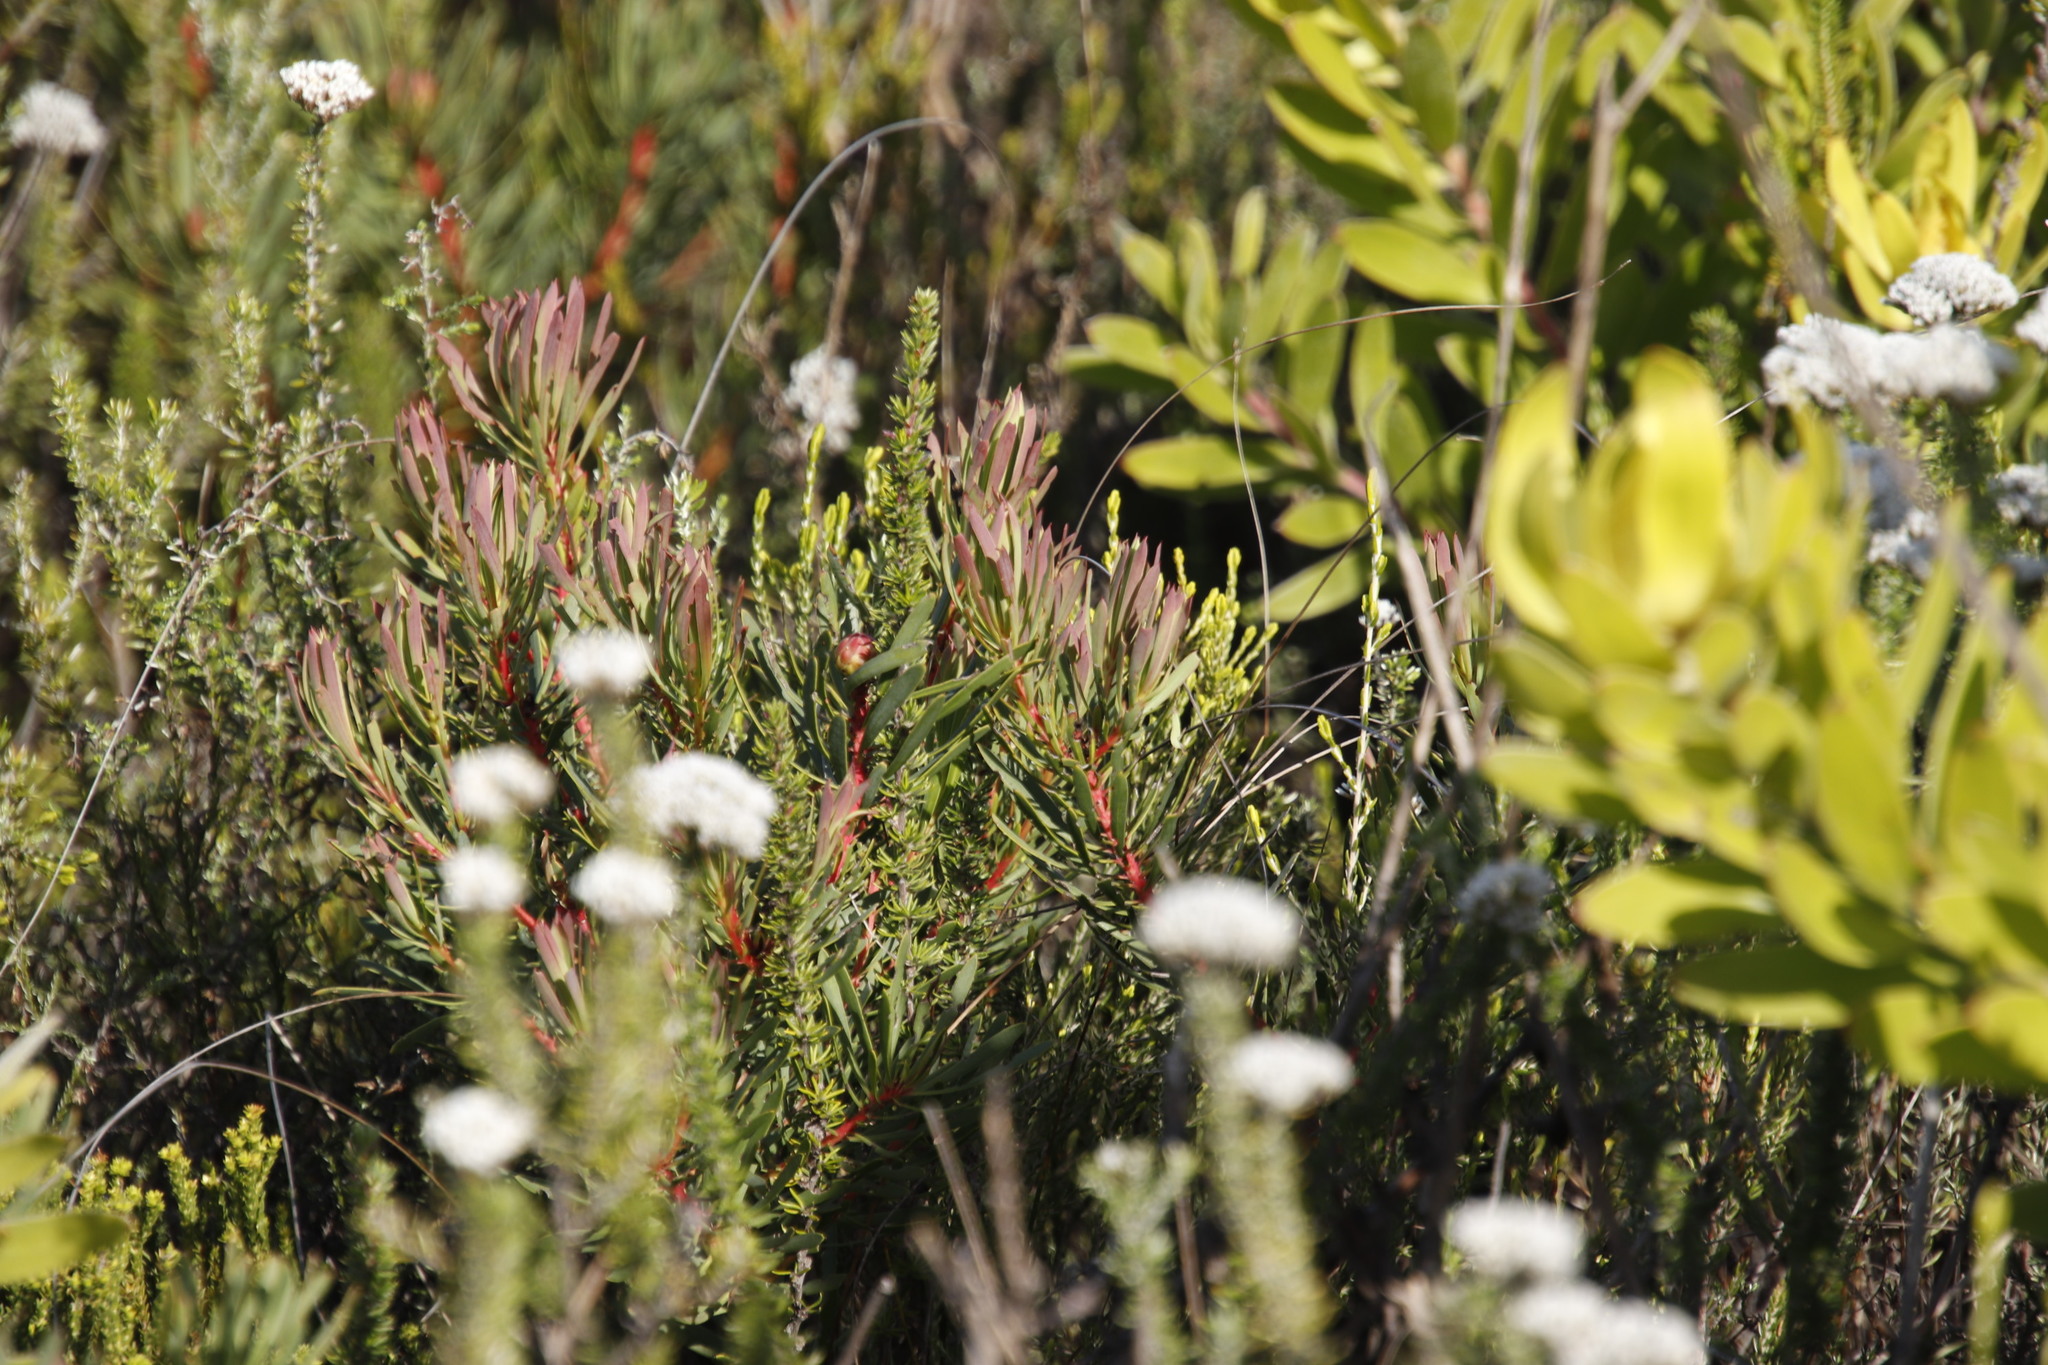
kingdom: Plantae
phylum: Tracheophyta
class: Magnoliopsida
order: Proteales
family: Proteaceae
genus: Protea
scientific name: Protea scolymocephala
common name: Thistle sugarbush
